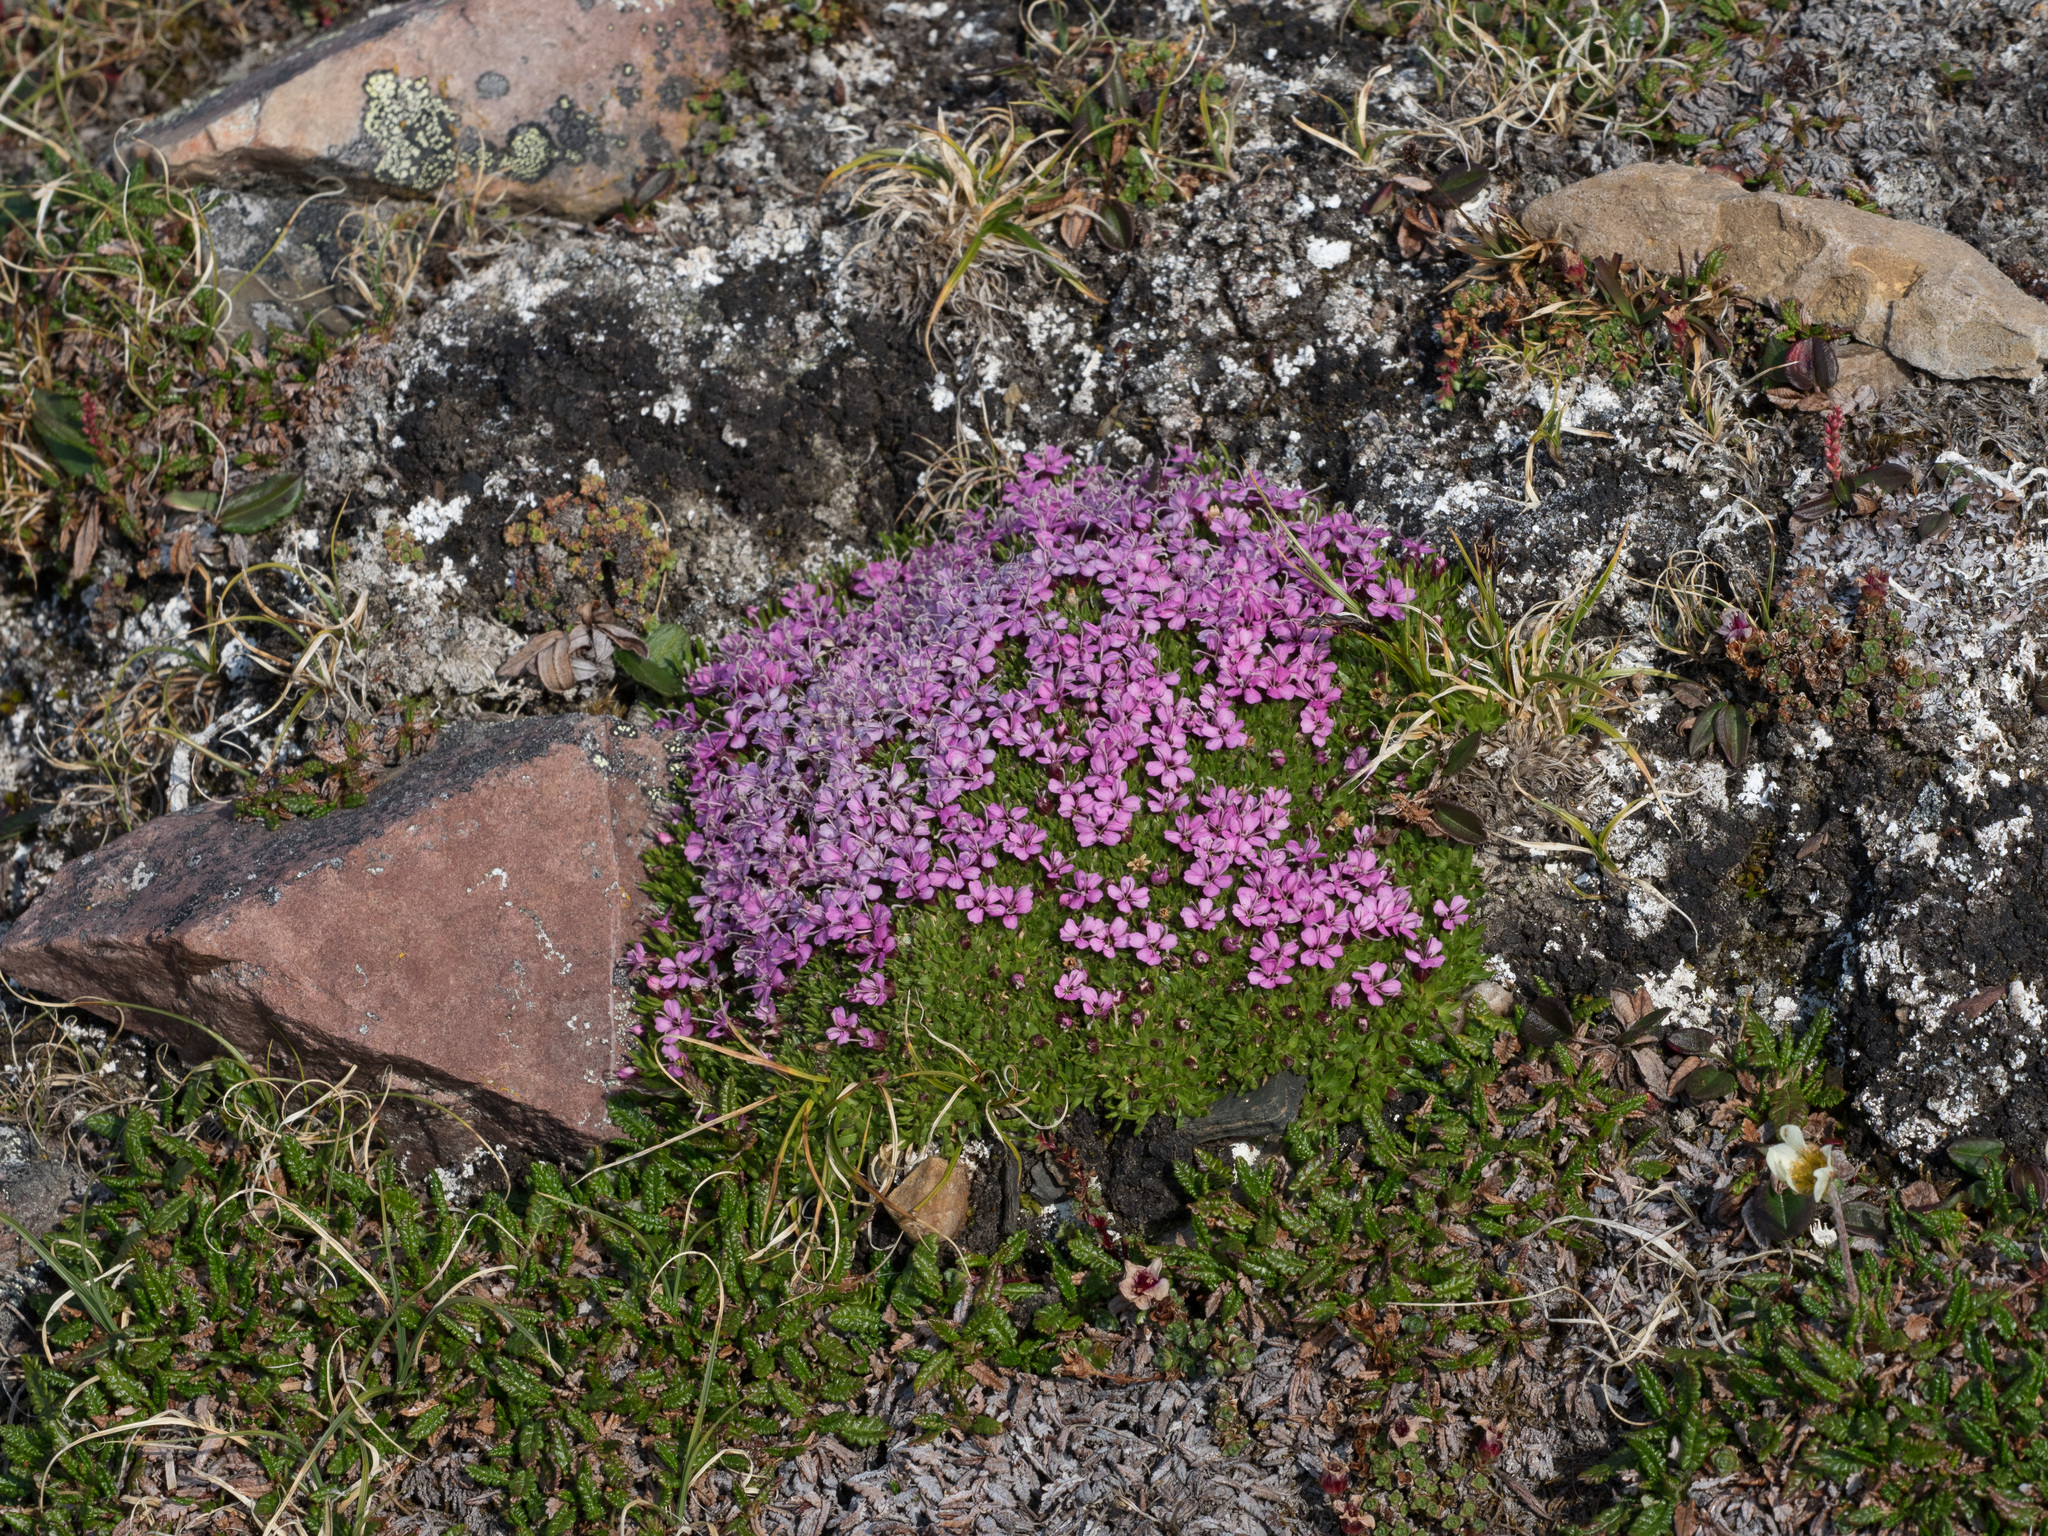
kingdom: Plantae
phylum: Tracheophyta
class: Magnoliopsida
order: Caryophyllales
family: Caryophyllaceae
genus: Silene
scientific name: Silene acaulis
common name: Moss campion
